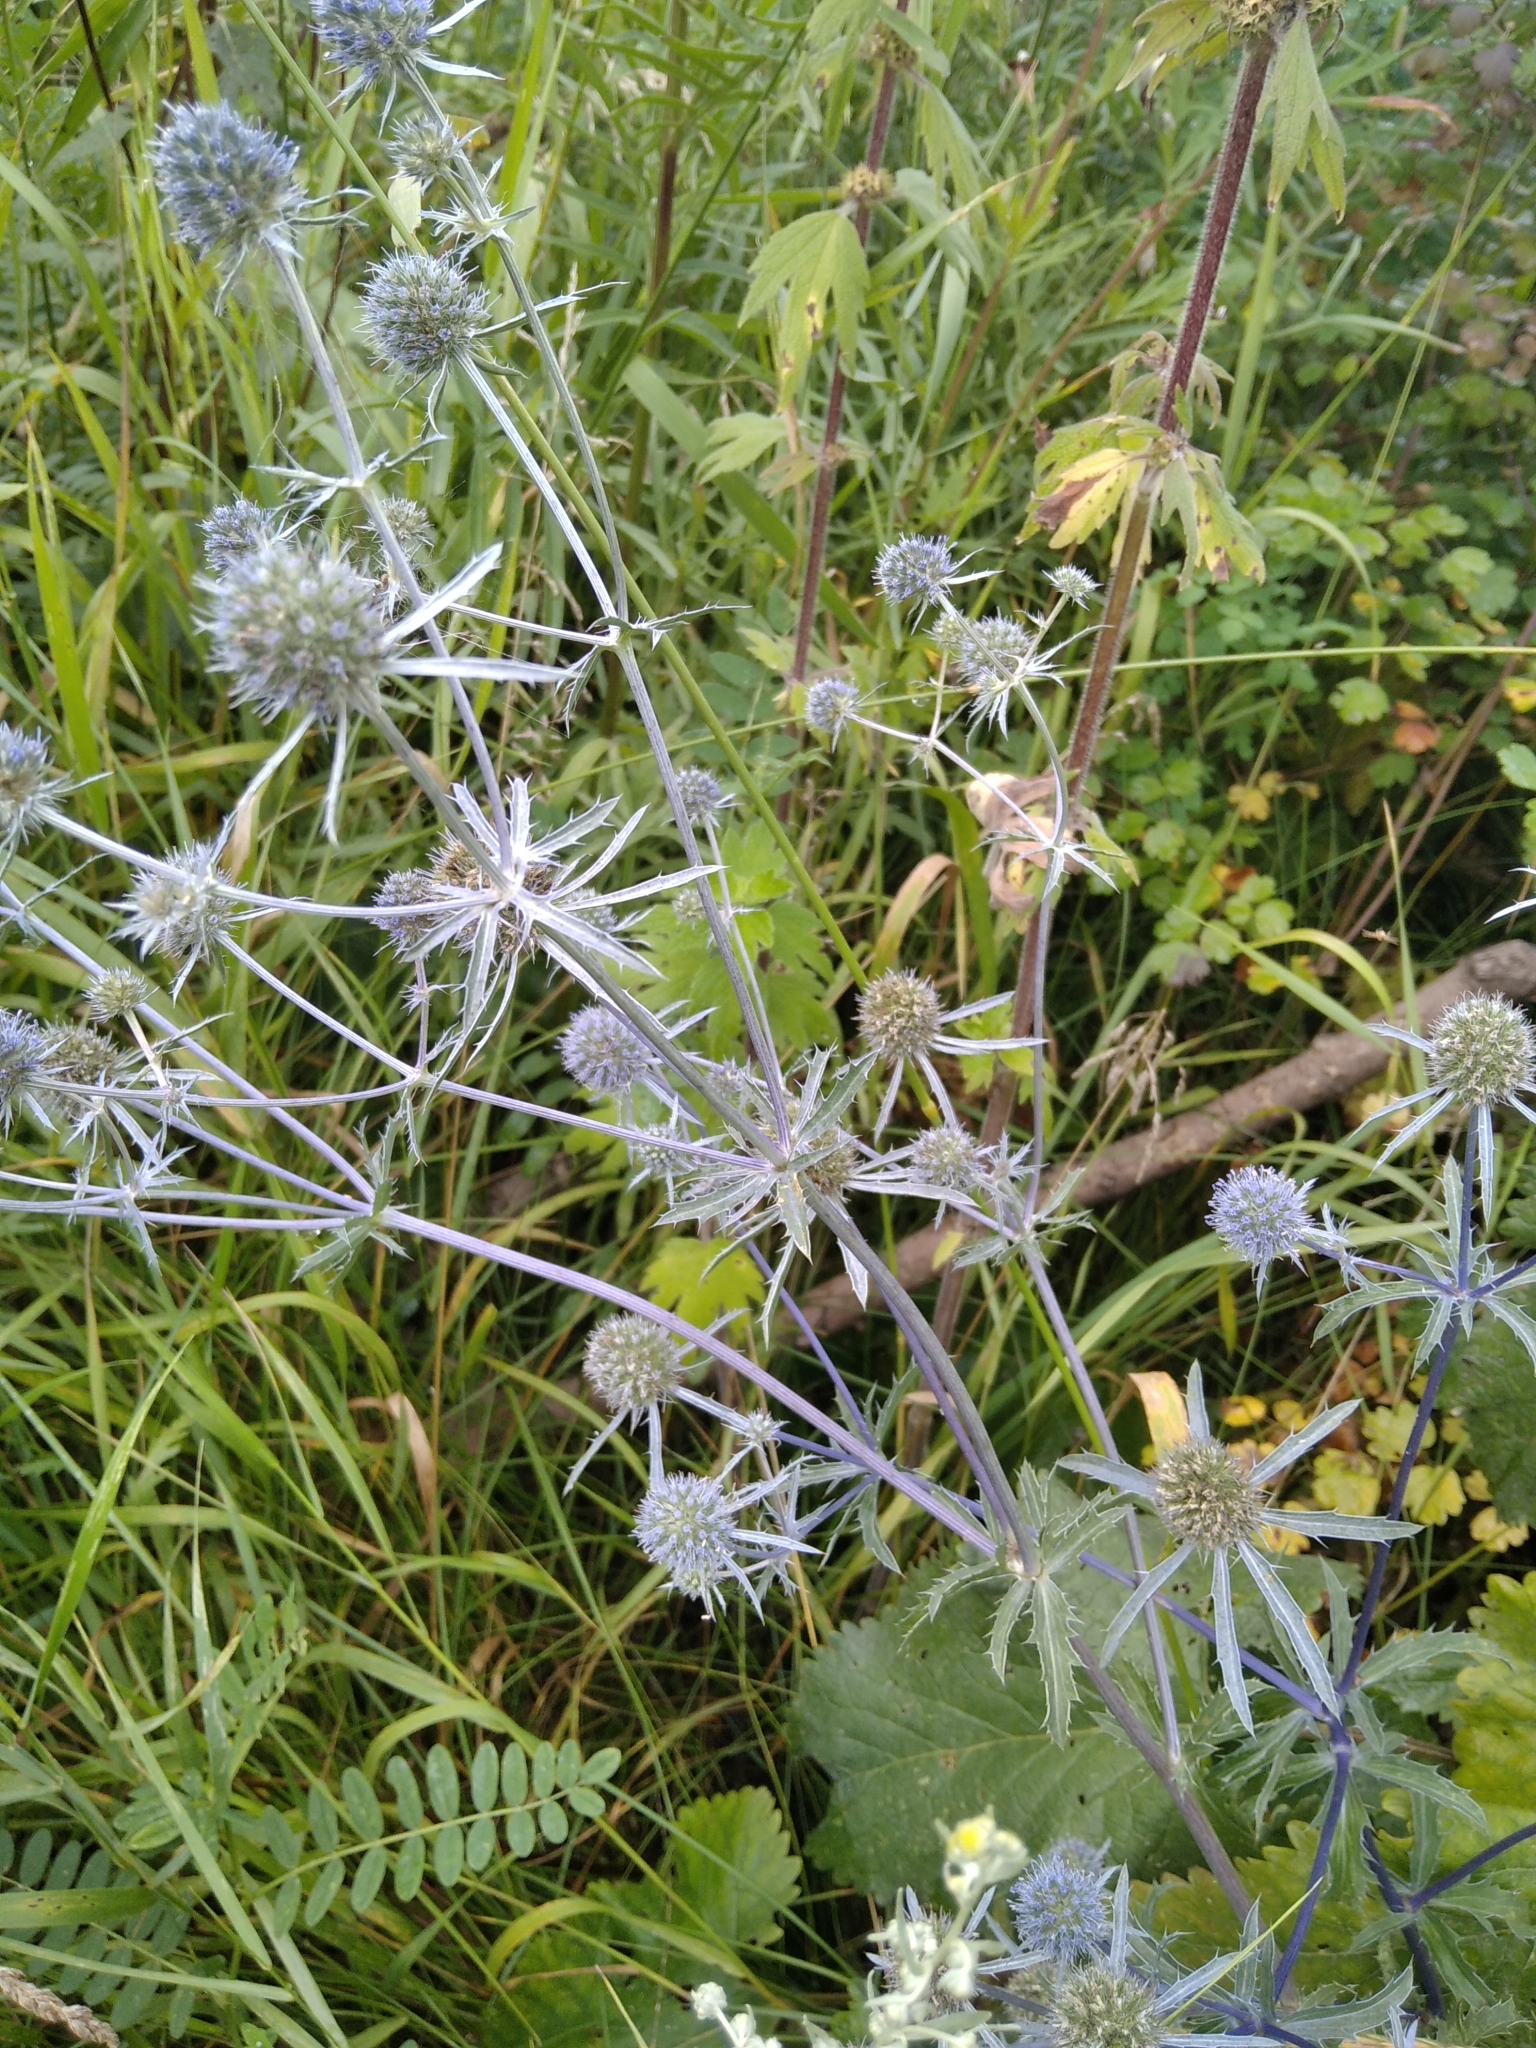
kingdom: Plantae
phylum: Tracheophyta
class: Magnoliopsida
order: Apiales
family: Apiaceae
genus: Eryngium
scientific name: Eryngium planum
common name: Blue eryngo
